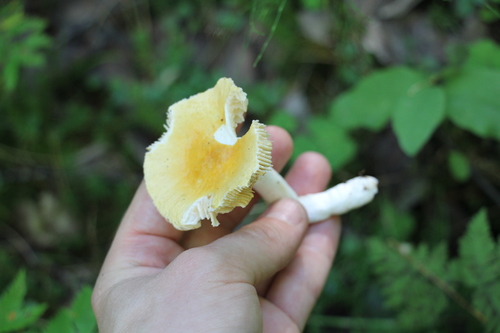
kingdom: Fungi
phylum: Basidiomycota
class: Agaricomycetes
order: Russulales
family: Russulaceae
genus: Russula
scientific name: Russula claroflava
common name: The yellow swamp brittlegill
